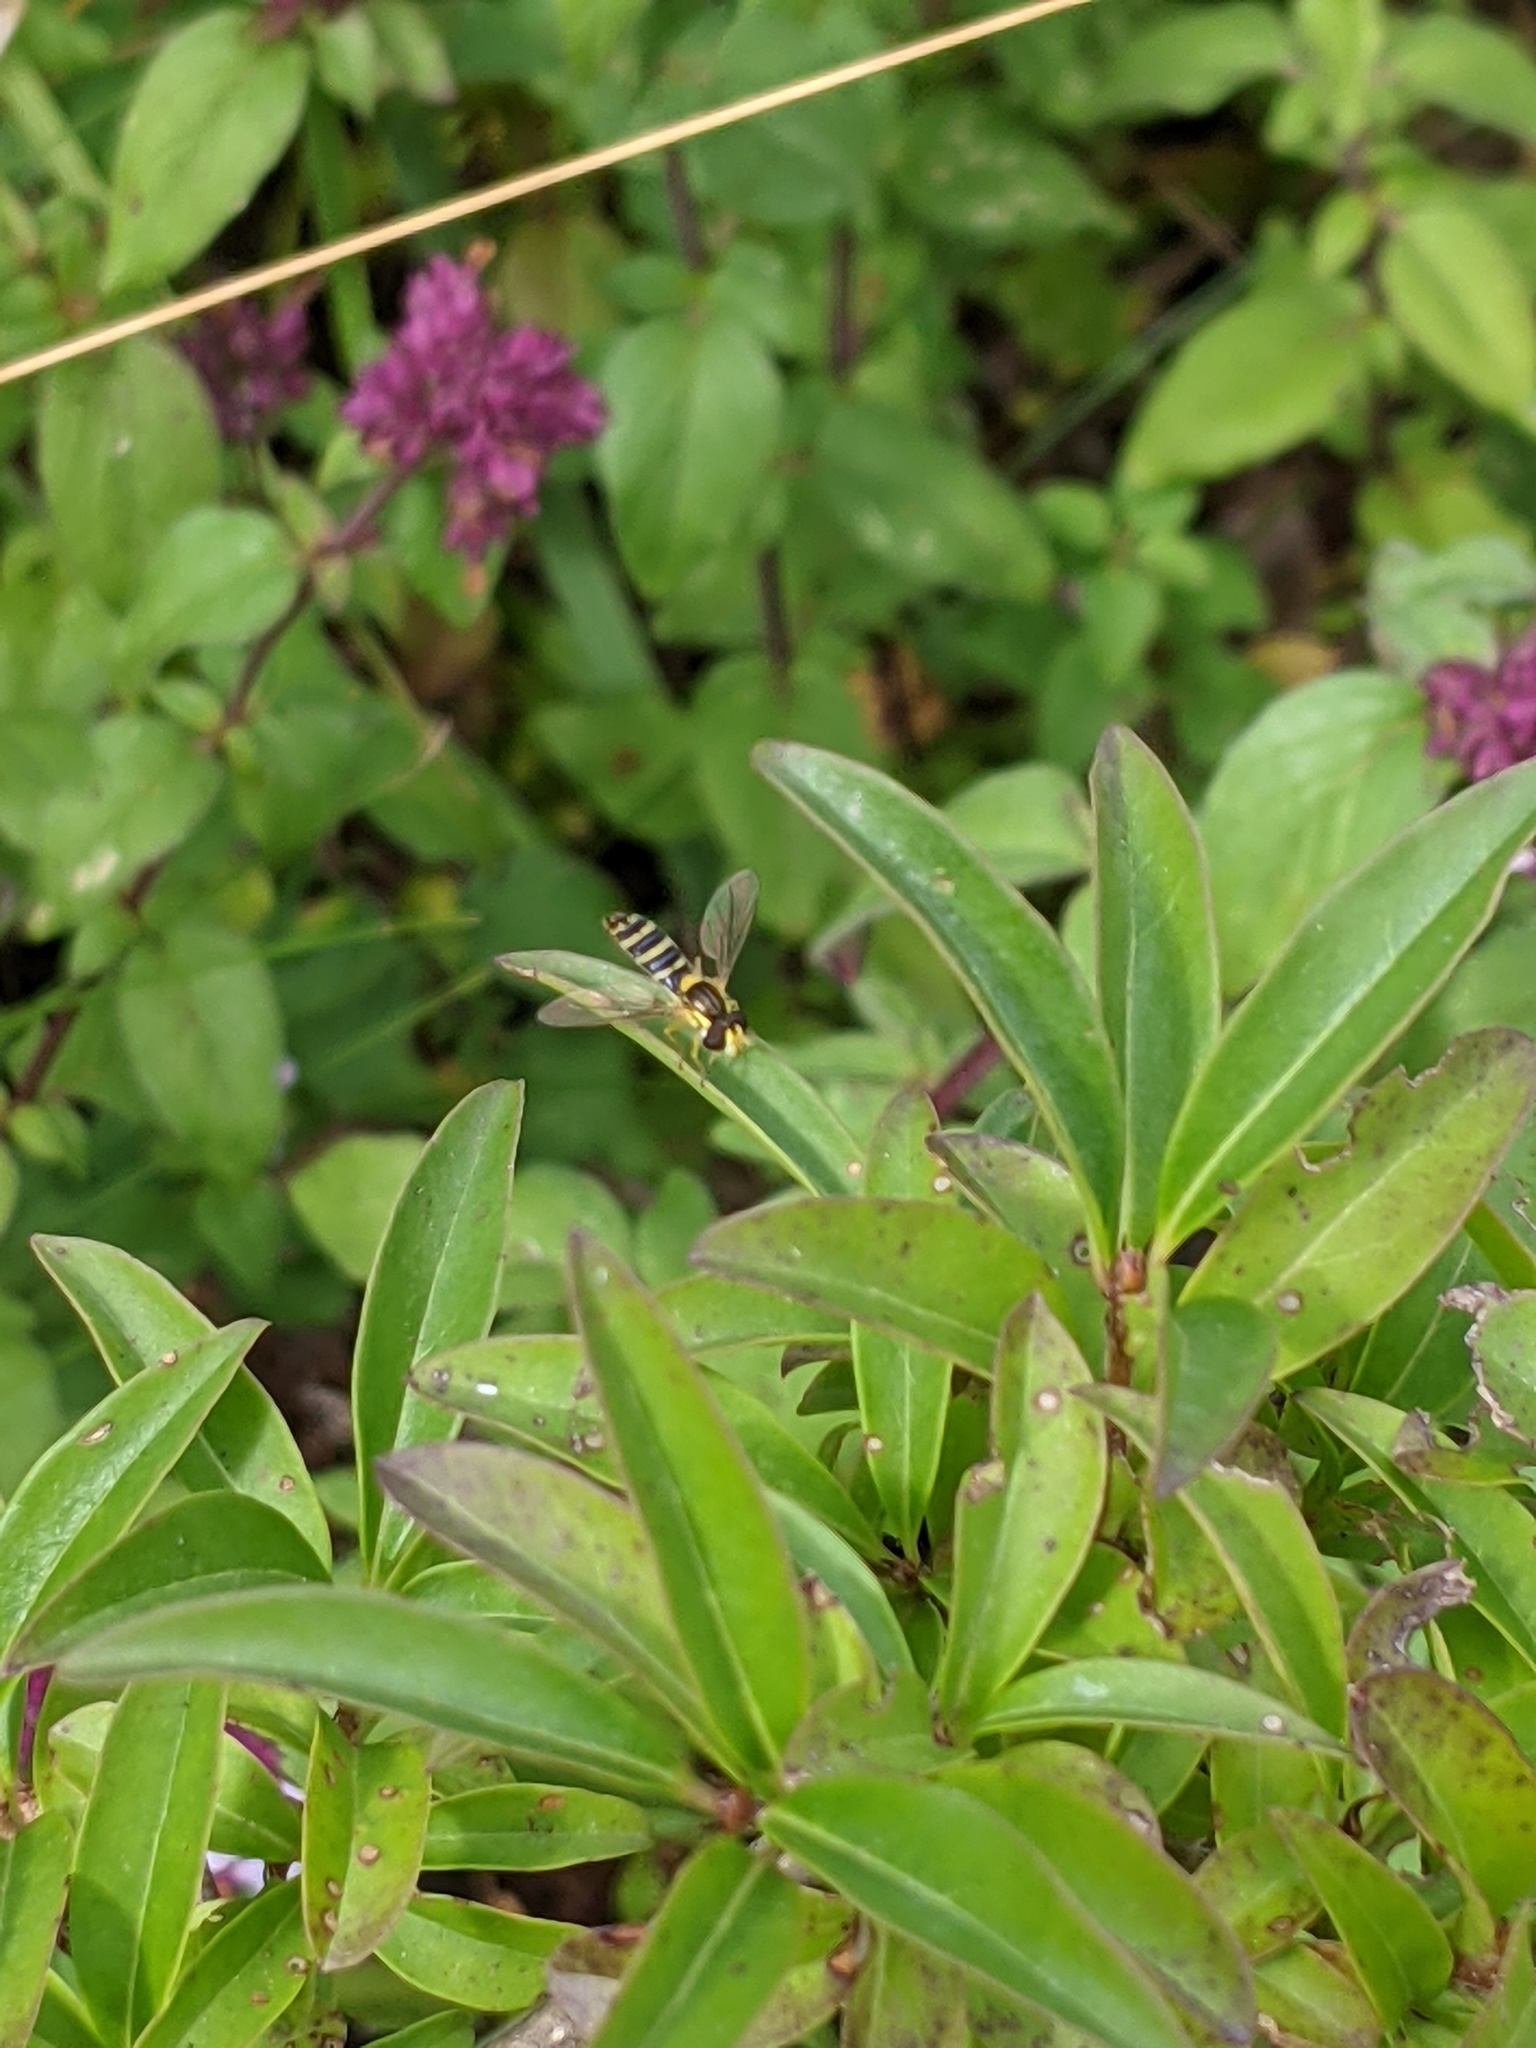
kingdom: Animalia
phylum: Arthropoda
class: Insecta
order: Diptera
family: Syrphidae
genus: Sphaerophoria
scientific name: Sphaerophoria
